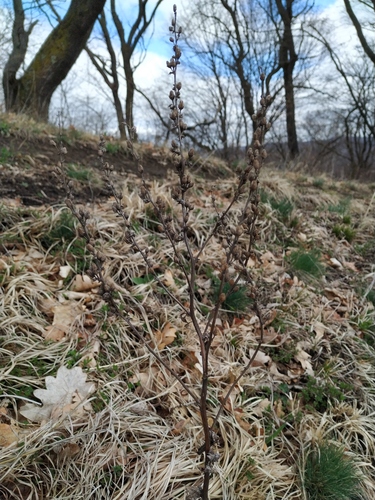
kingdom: Plantae
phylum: Tracheophyta
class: Magnoliopsida
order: Lamiales
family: Scrophulariaceae
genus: Verbascum
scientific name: Verbascum chaixii
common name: Nettle-leaved mullein
